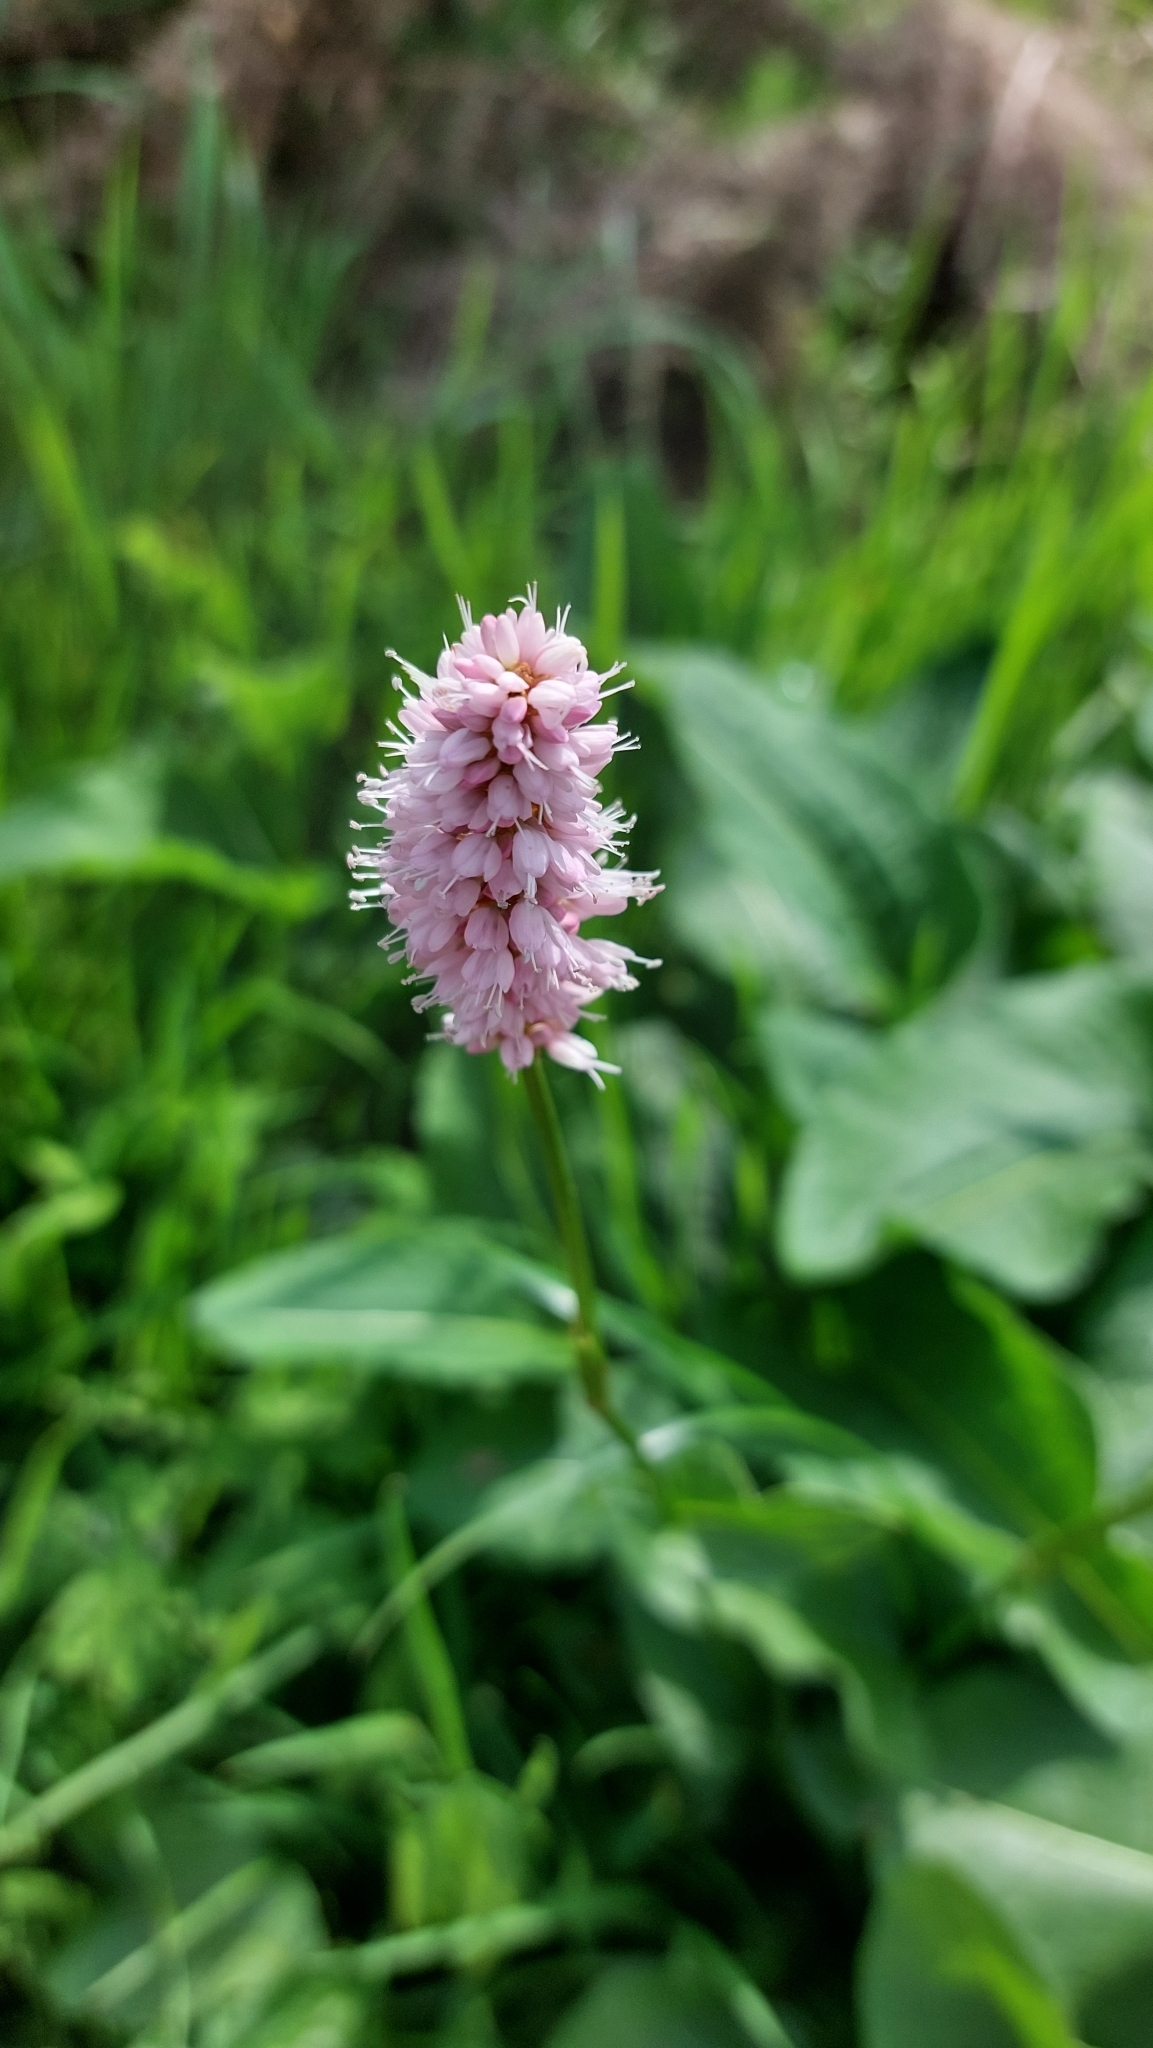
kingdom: Plantae
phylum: Tracheophyta
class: Magnoliopsida
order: Caryophyllales
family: Polygonaceae
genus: Bistorta
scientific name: Bistorta officinalis
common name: Common bistort
